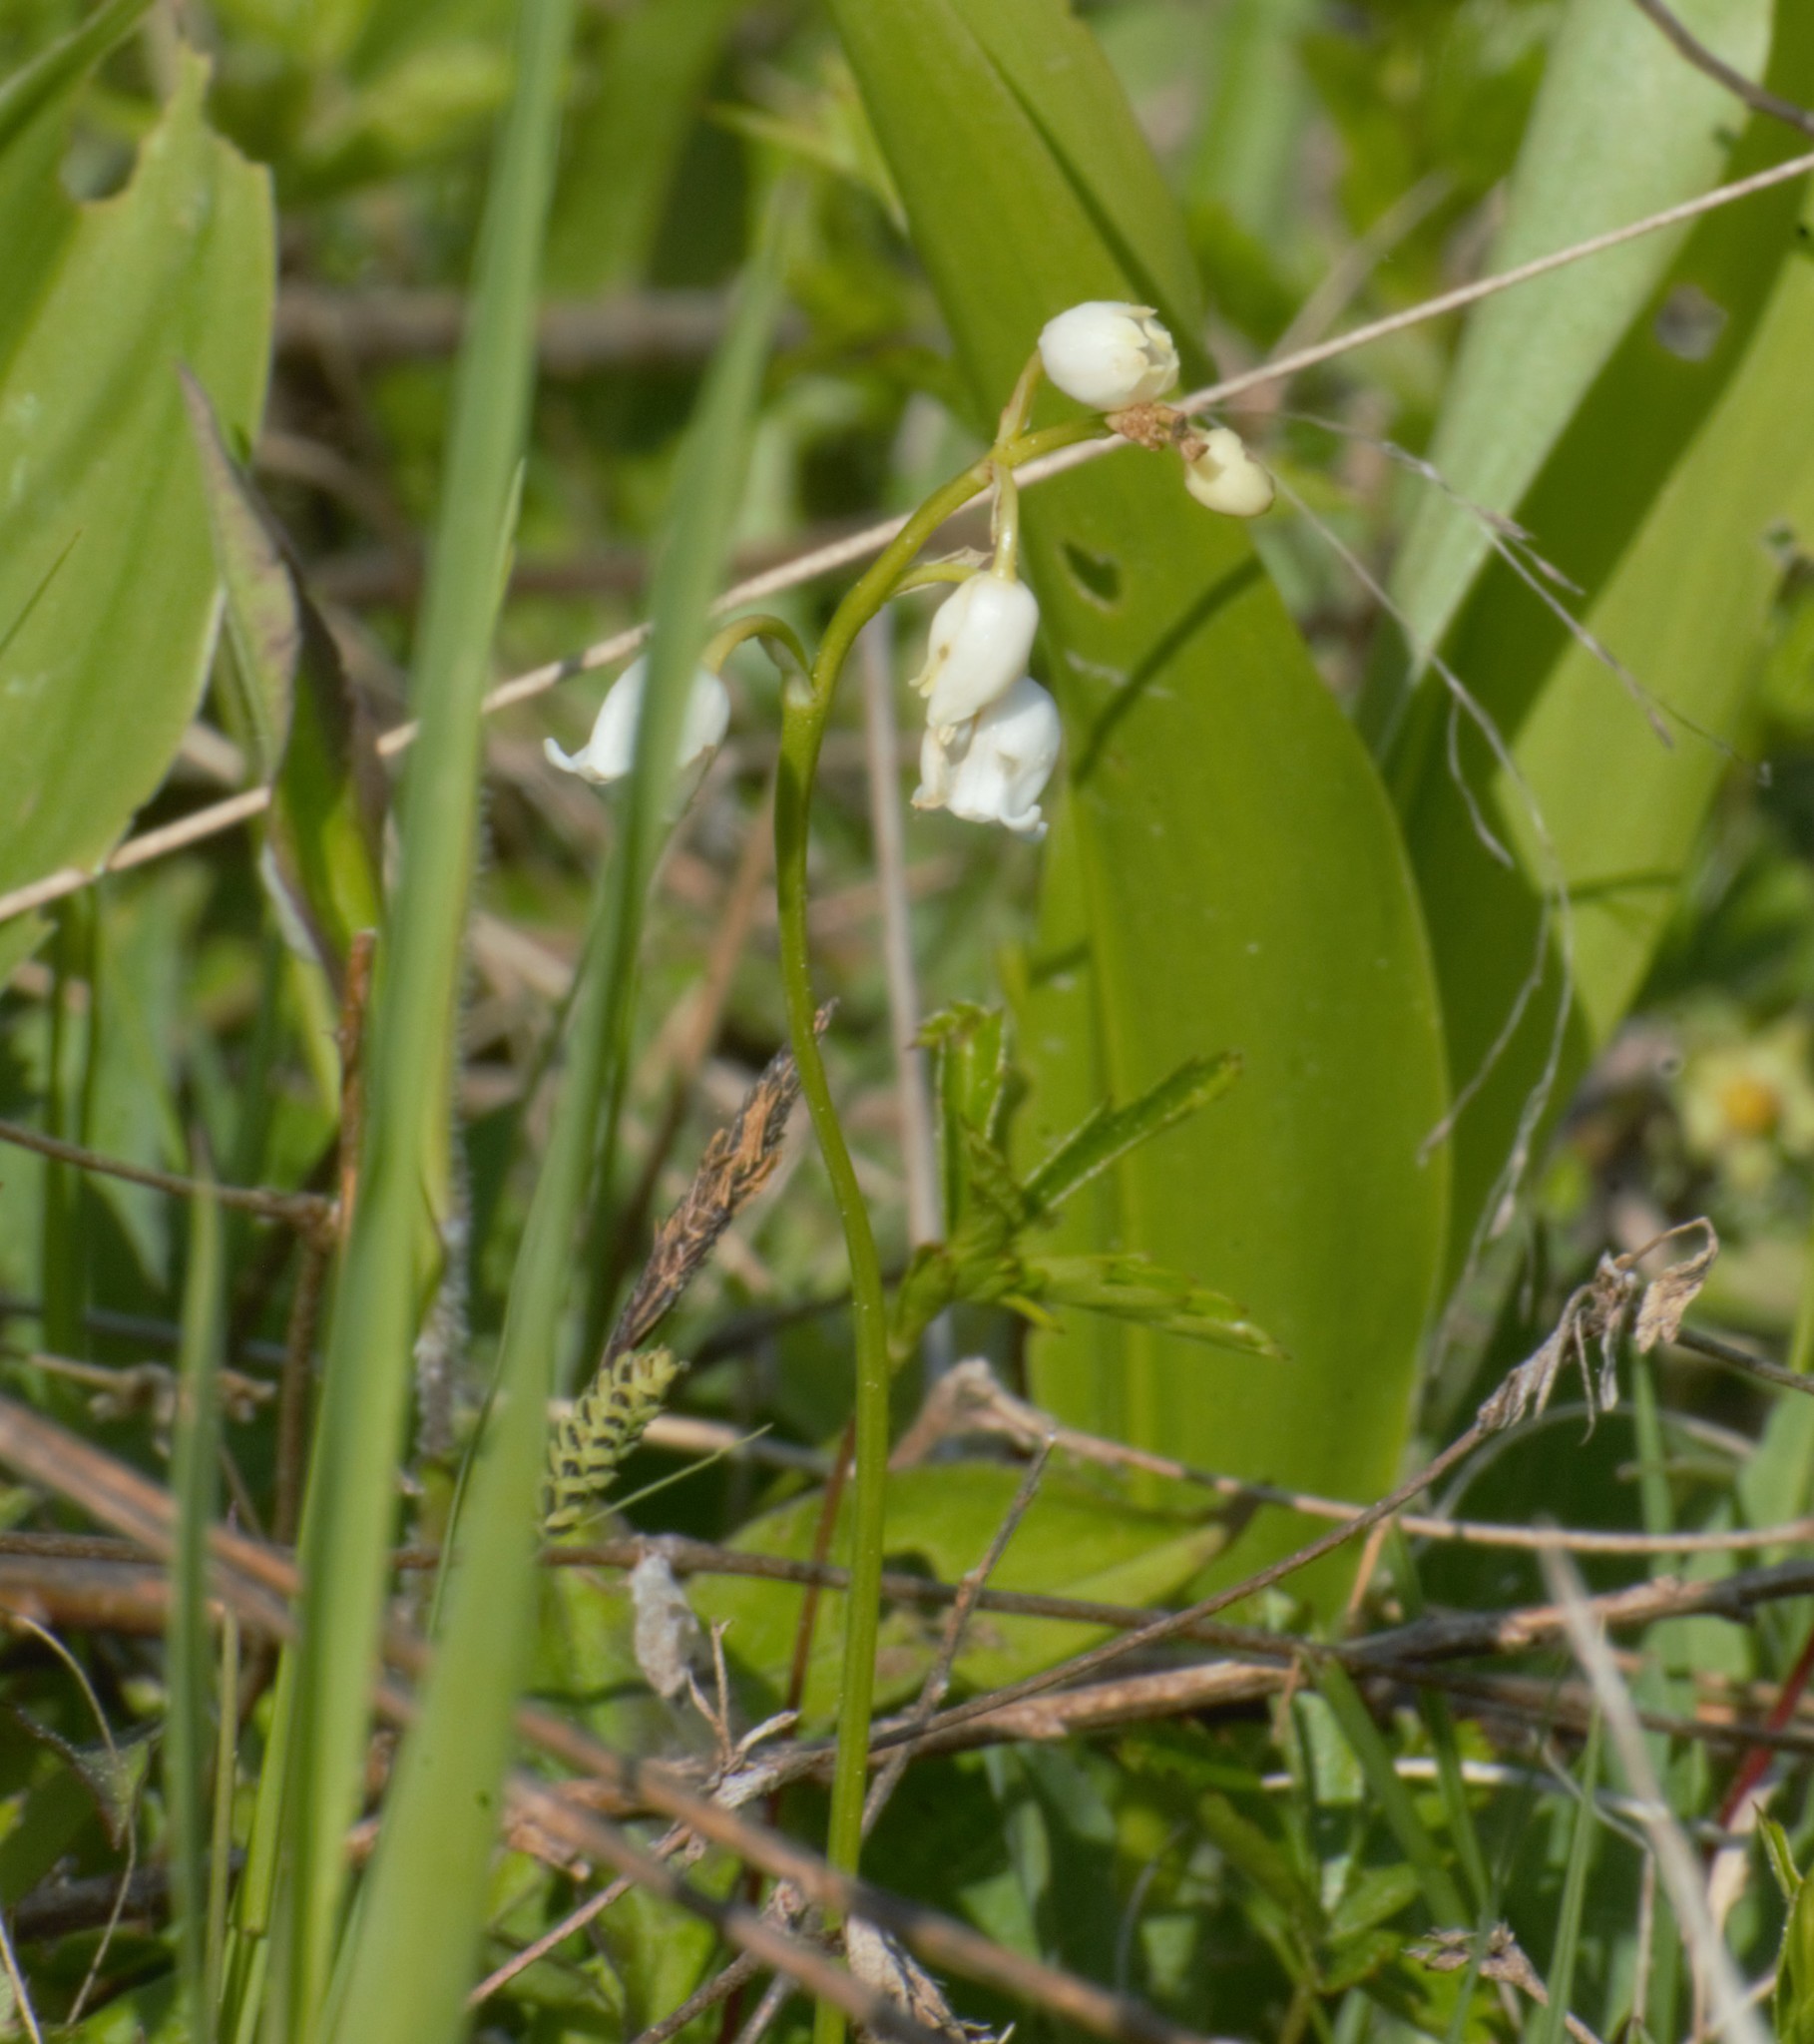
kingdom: Plantae
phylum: Tracheophyta
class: Liliopsida
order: Asparagales
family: Asparagaceae
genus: Convallaria
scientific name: Convallaria majalis
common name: Lily-of-the-valley
